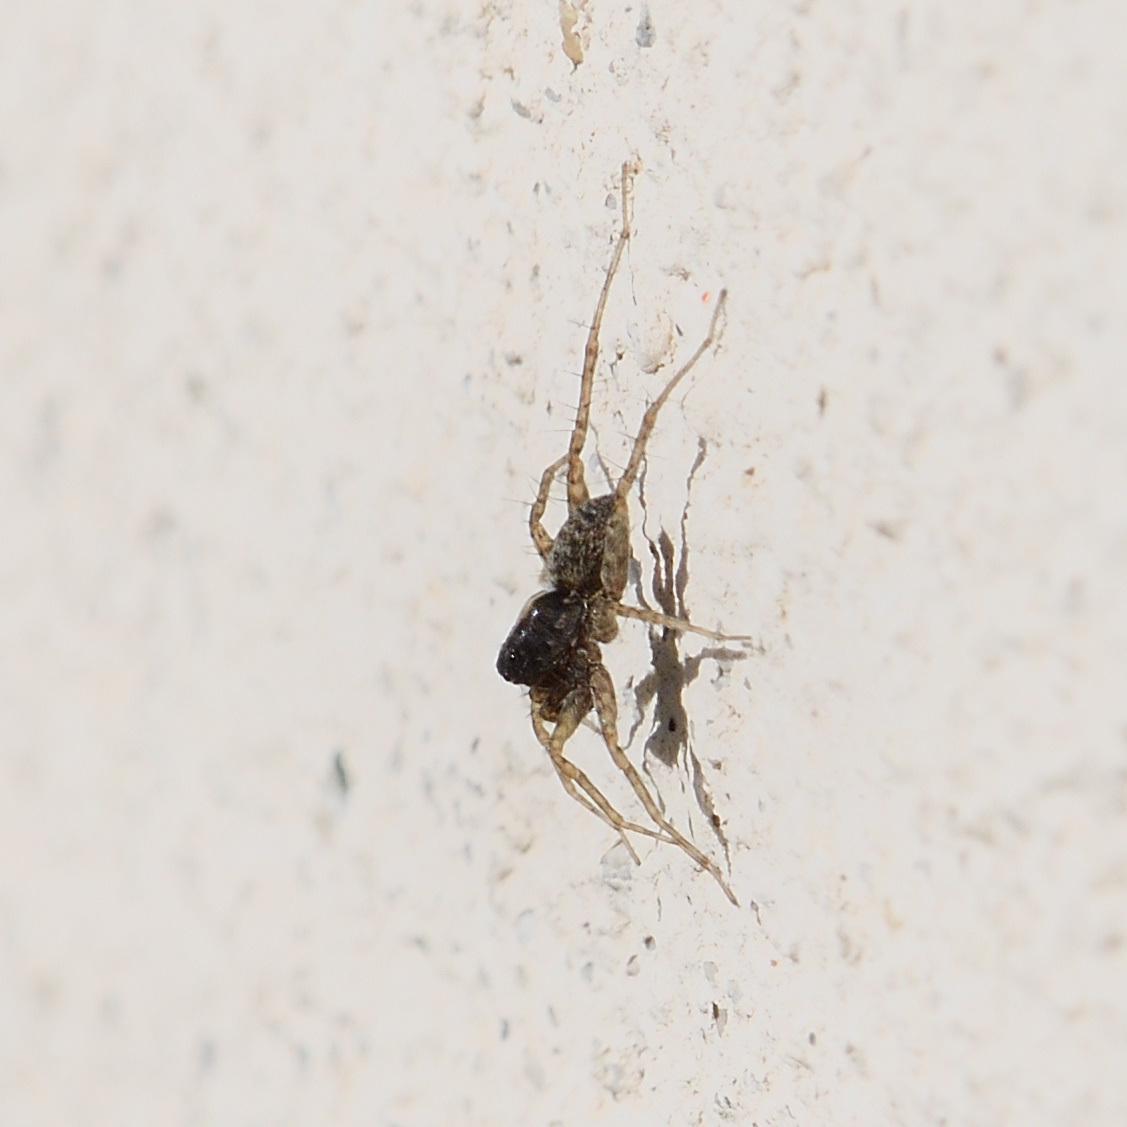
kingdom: Animalia
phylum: Arthropoda
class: Arachnida
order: Araneae
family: Lycosidae
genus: Pardosa
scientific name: Pardosa
